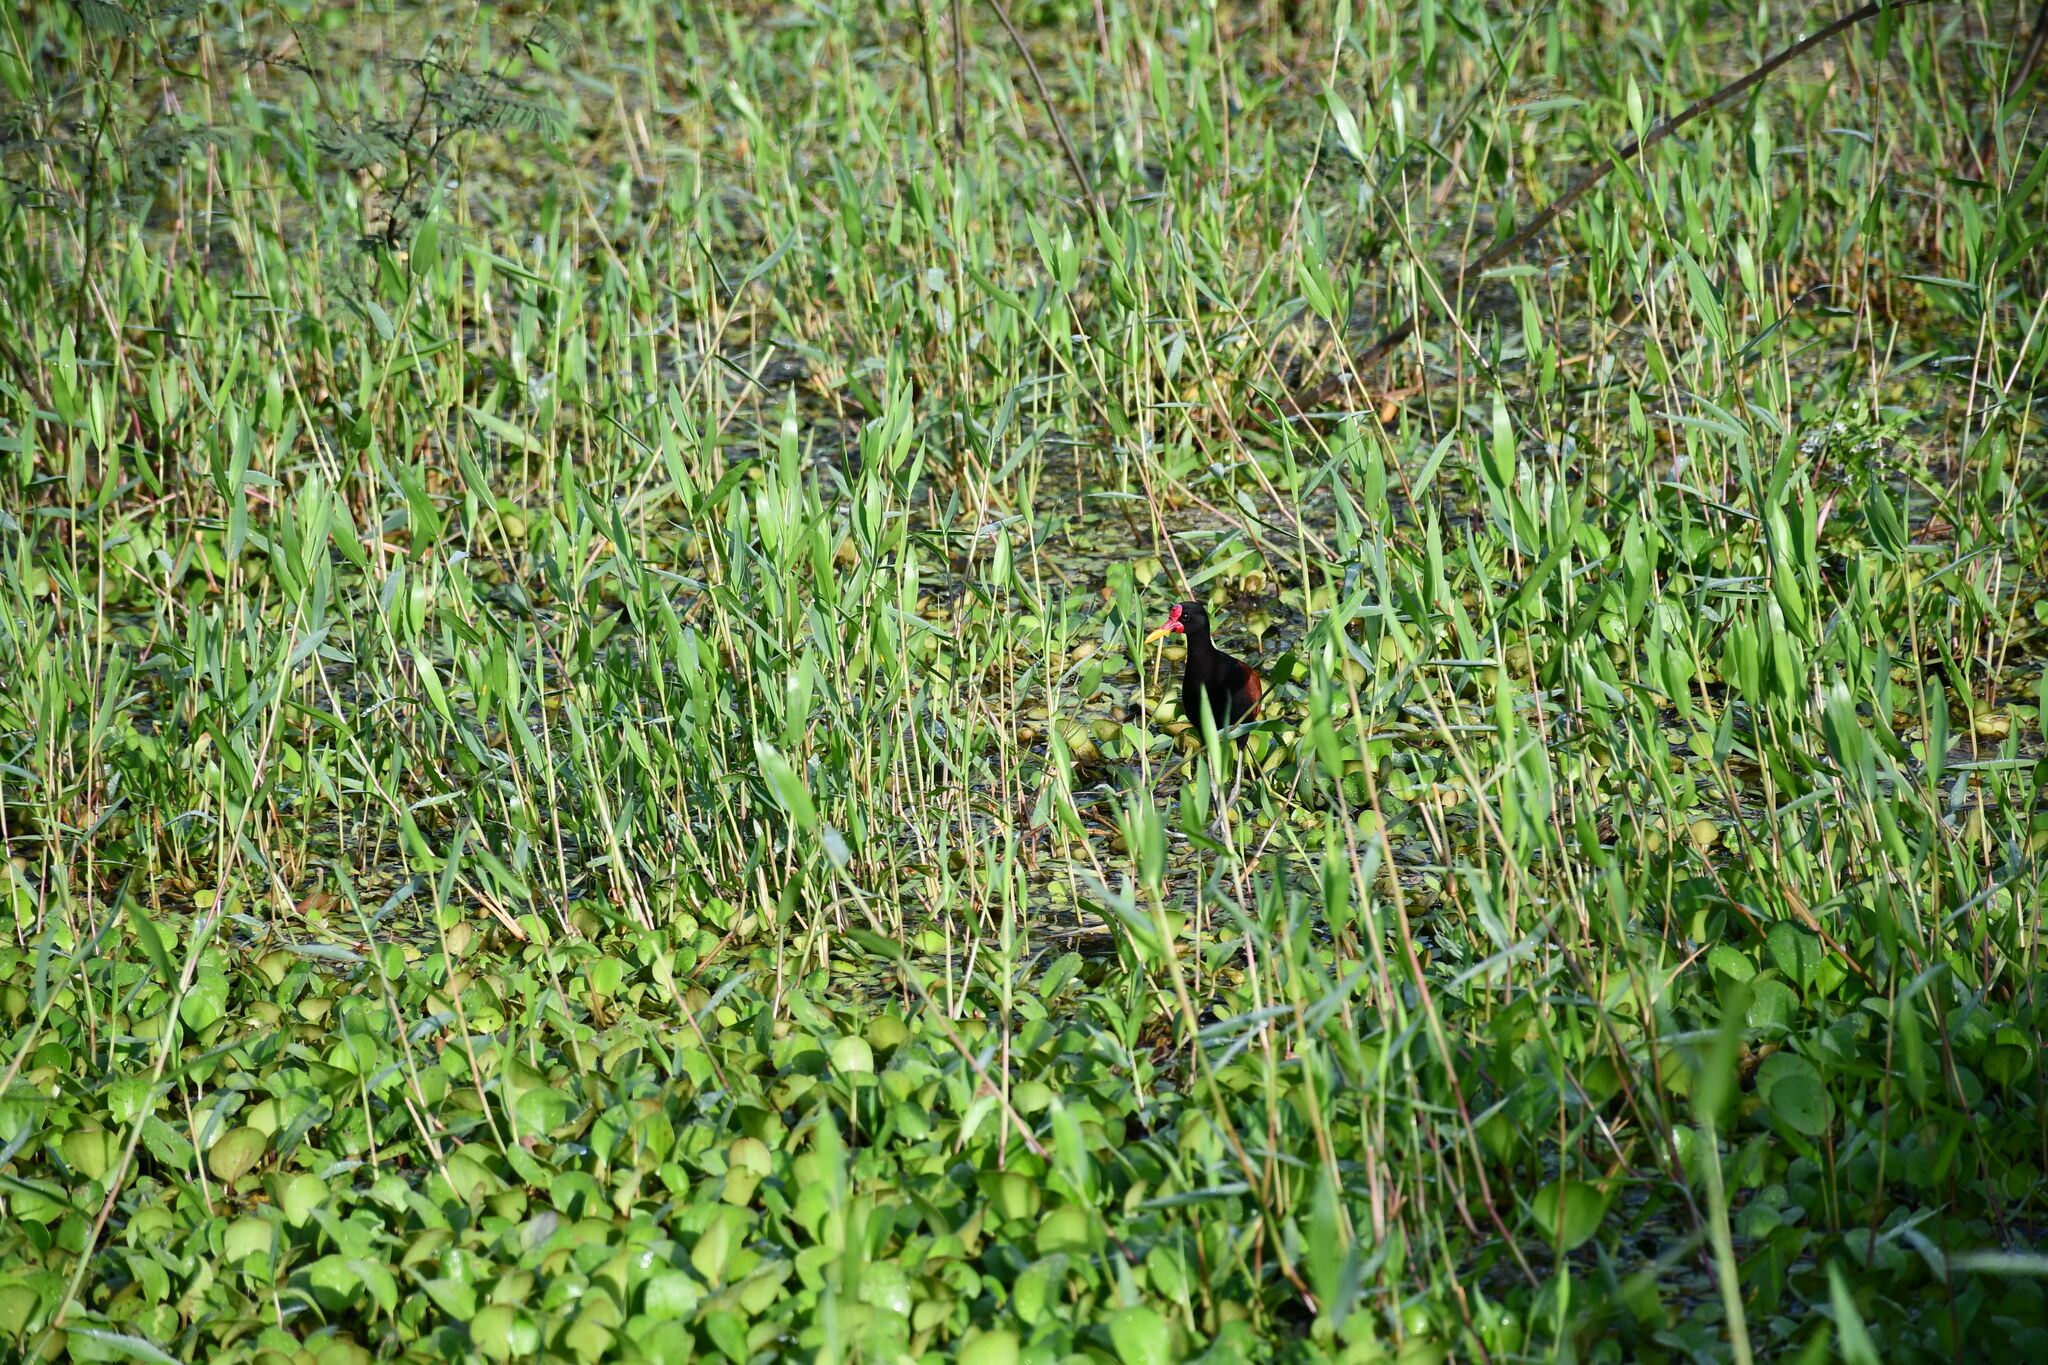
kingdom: Animalia
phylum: Chordata
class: Aves
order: Charadriiformes
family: Jacanidae
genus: Jacana
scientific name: Jacana jacana
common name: Wattled jacana
